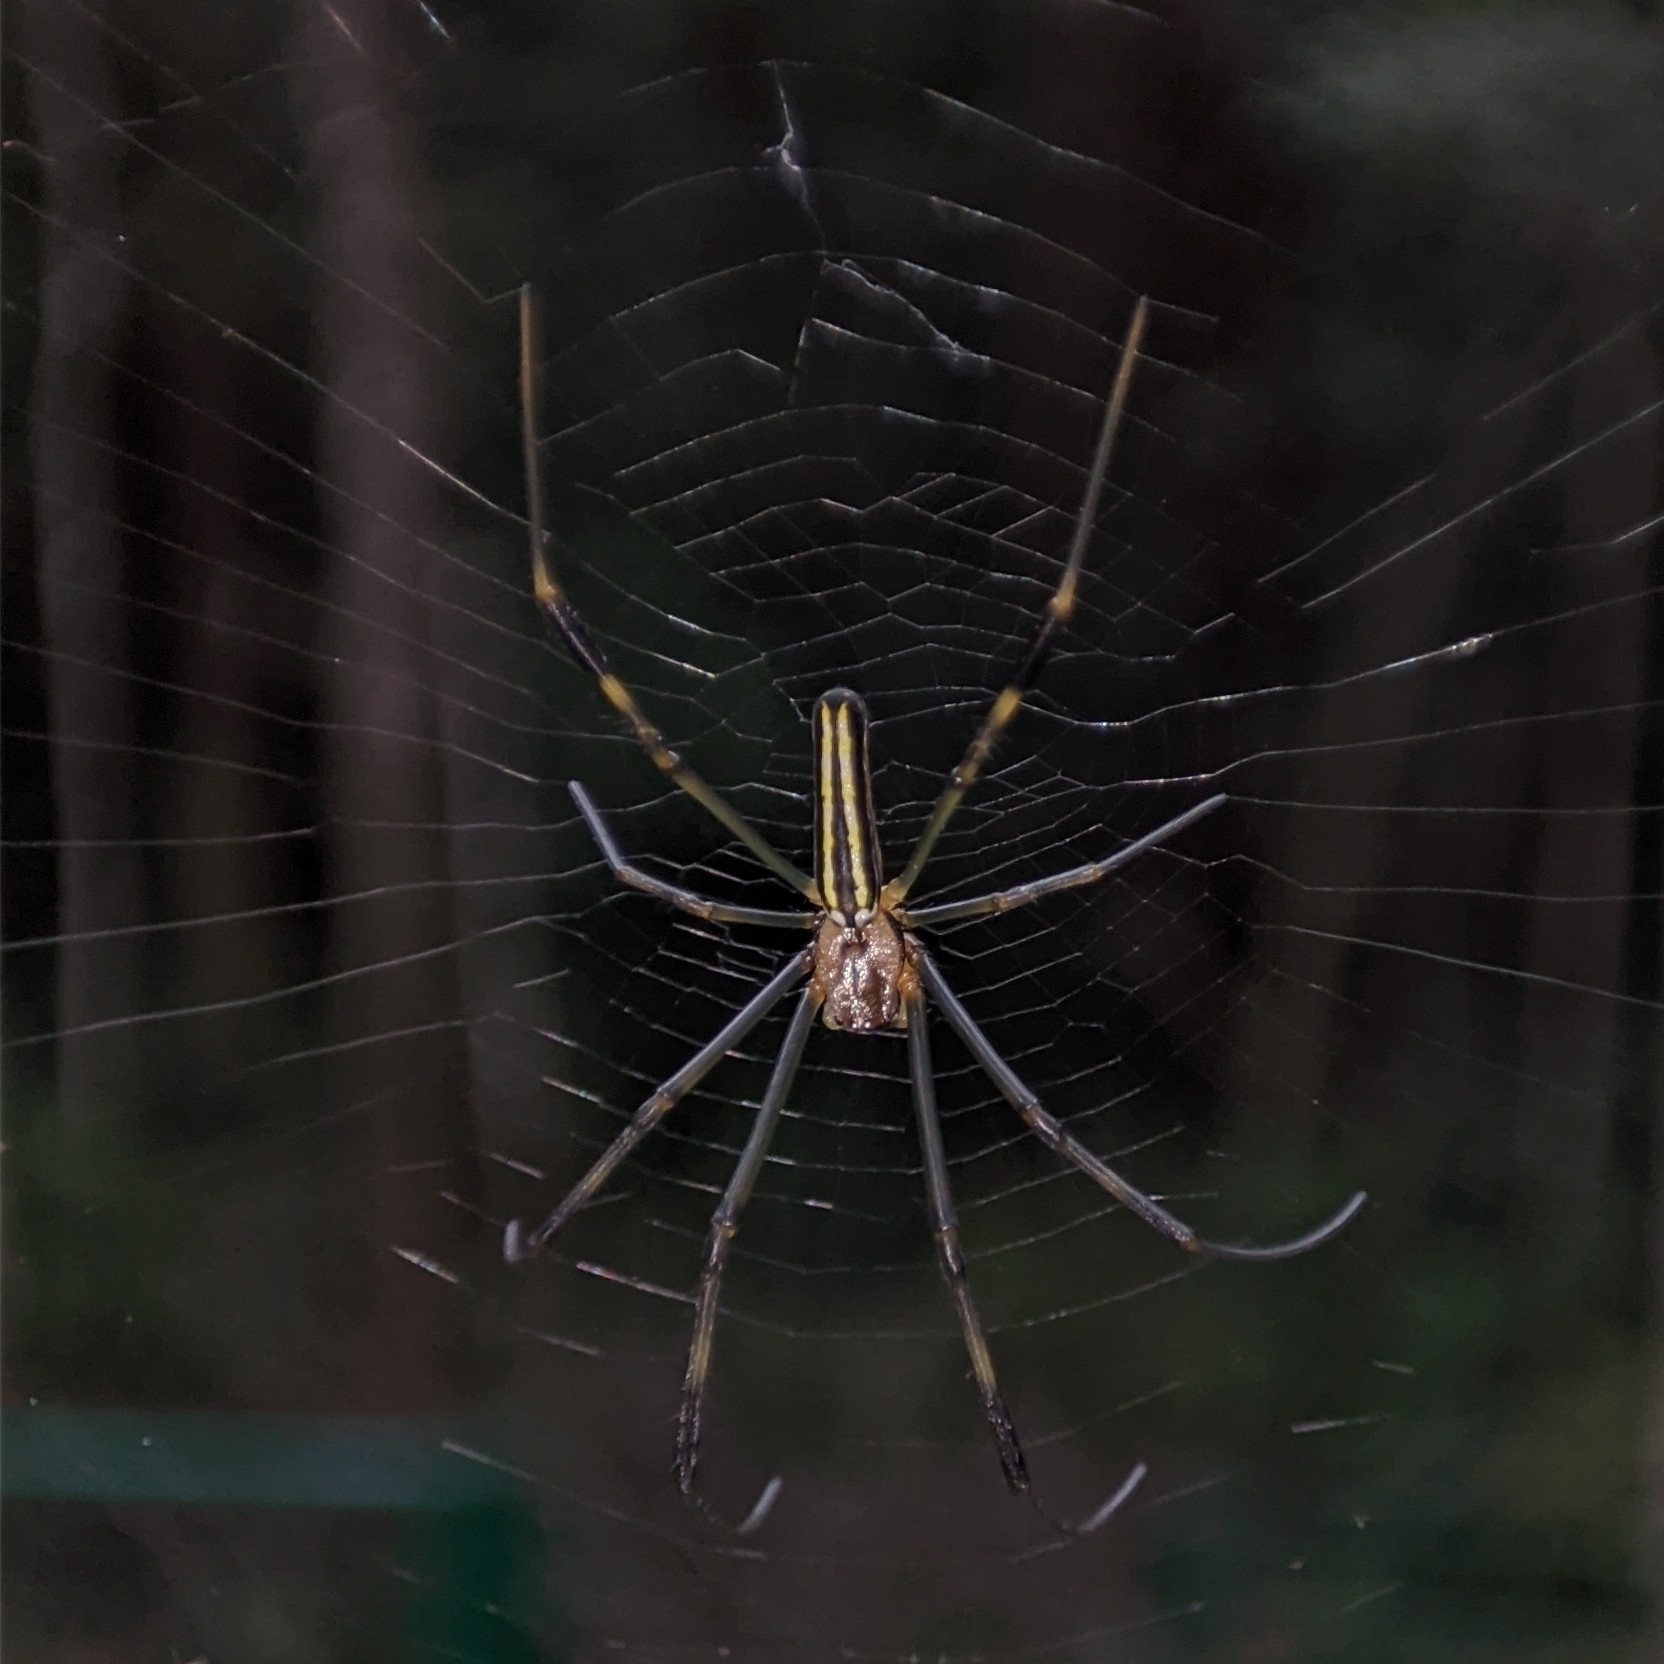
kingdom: Animalia
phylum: Arthropoda
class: Arachnida
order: Araneae
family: Araneidae
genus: Nephila
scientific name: Nephila pilipes
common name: Giant golden orb weaver
